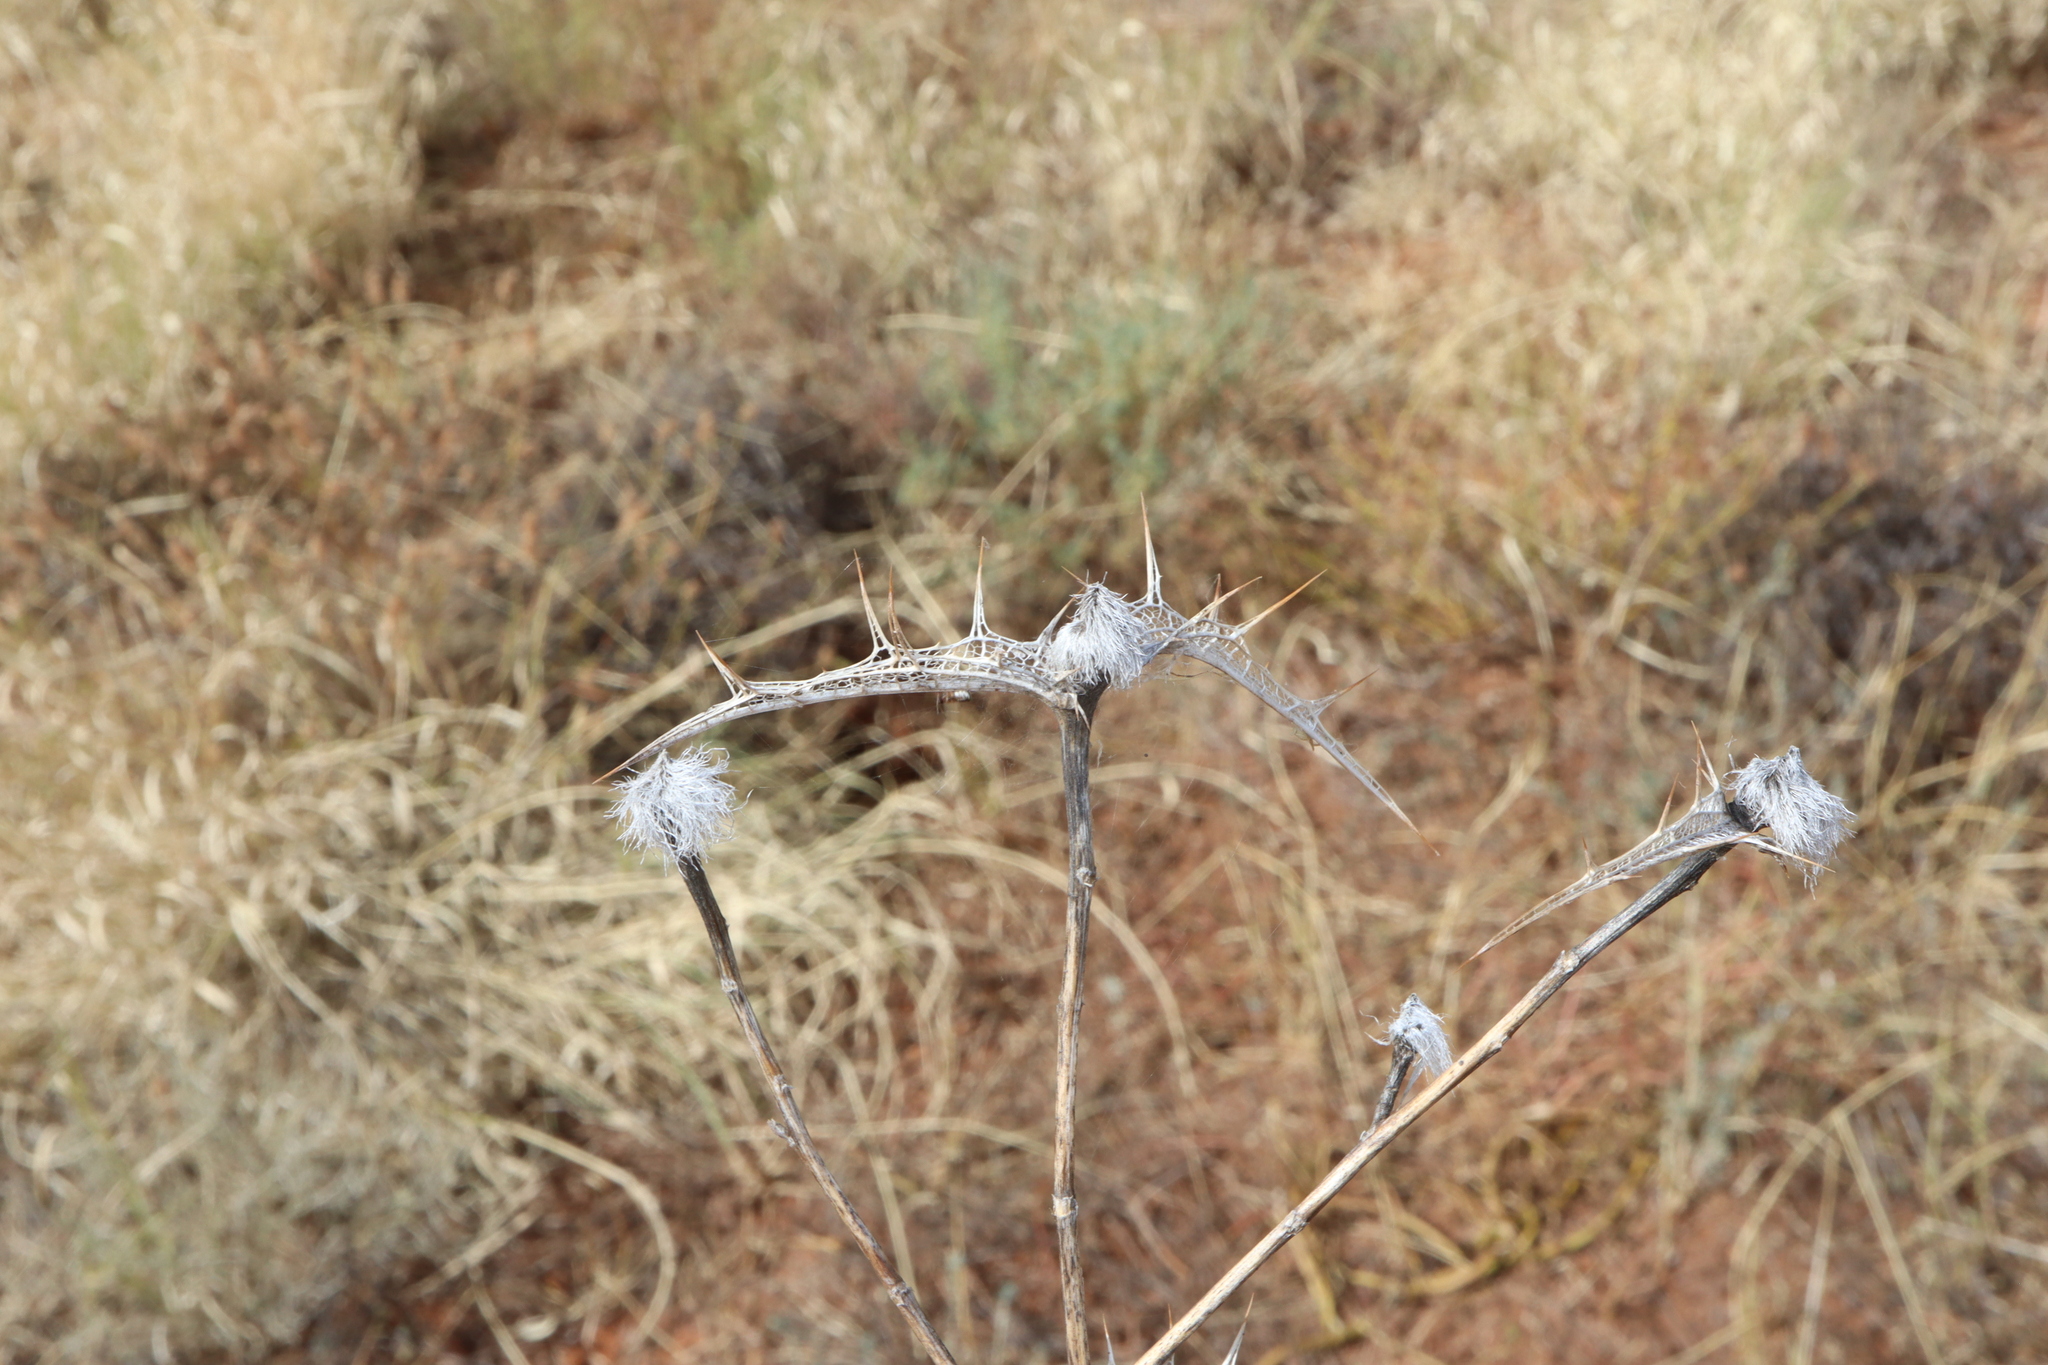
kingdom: Plantae
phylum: Tracheophyta
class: Magnoliopsida
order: Asterales
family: Asteraceae
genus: Carthamus
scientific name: Carthamus lanatus
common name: Downy safflower
